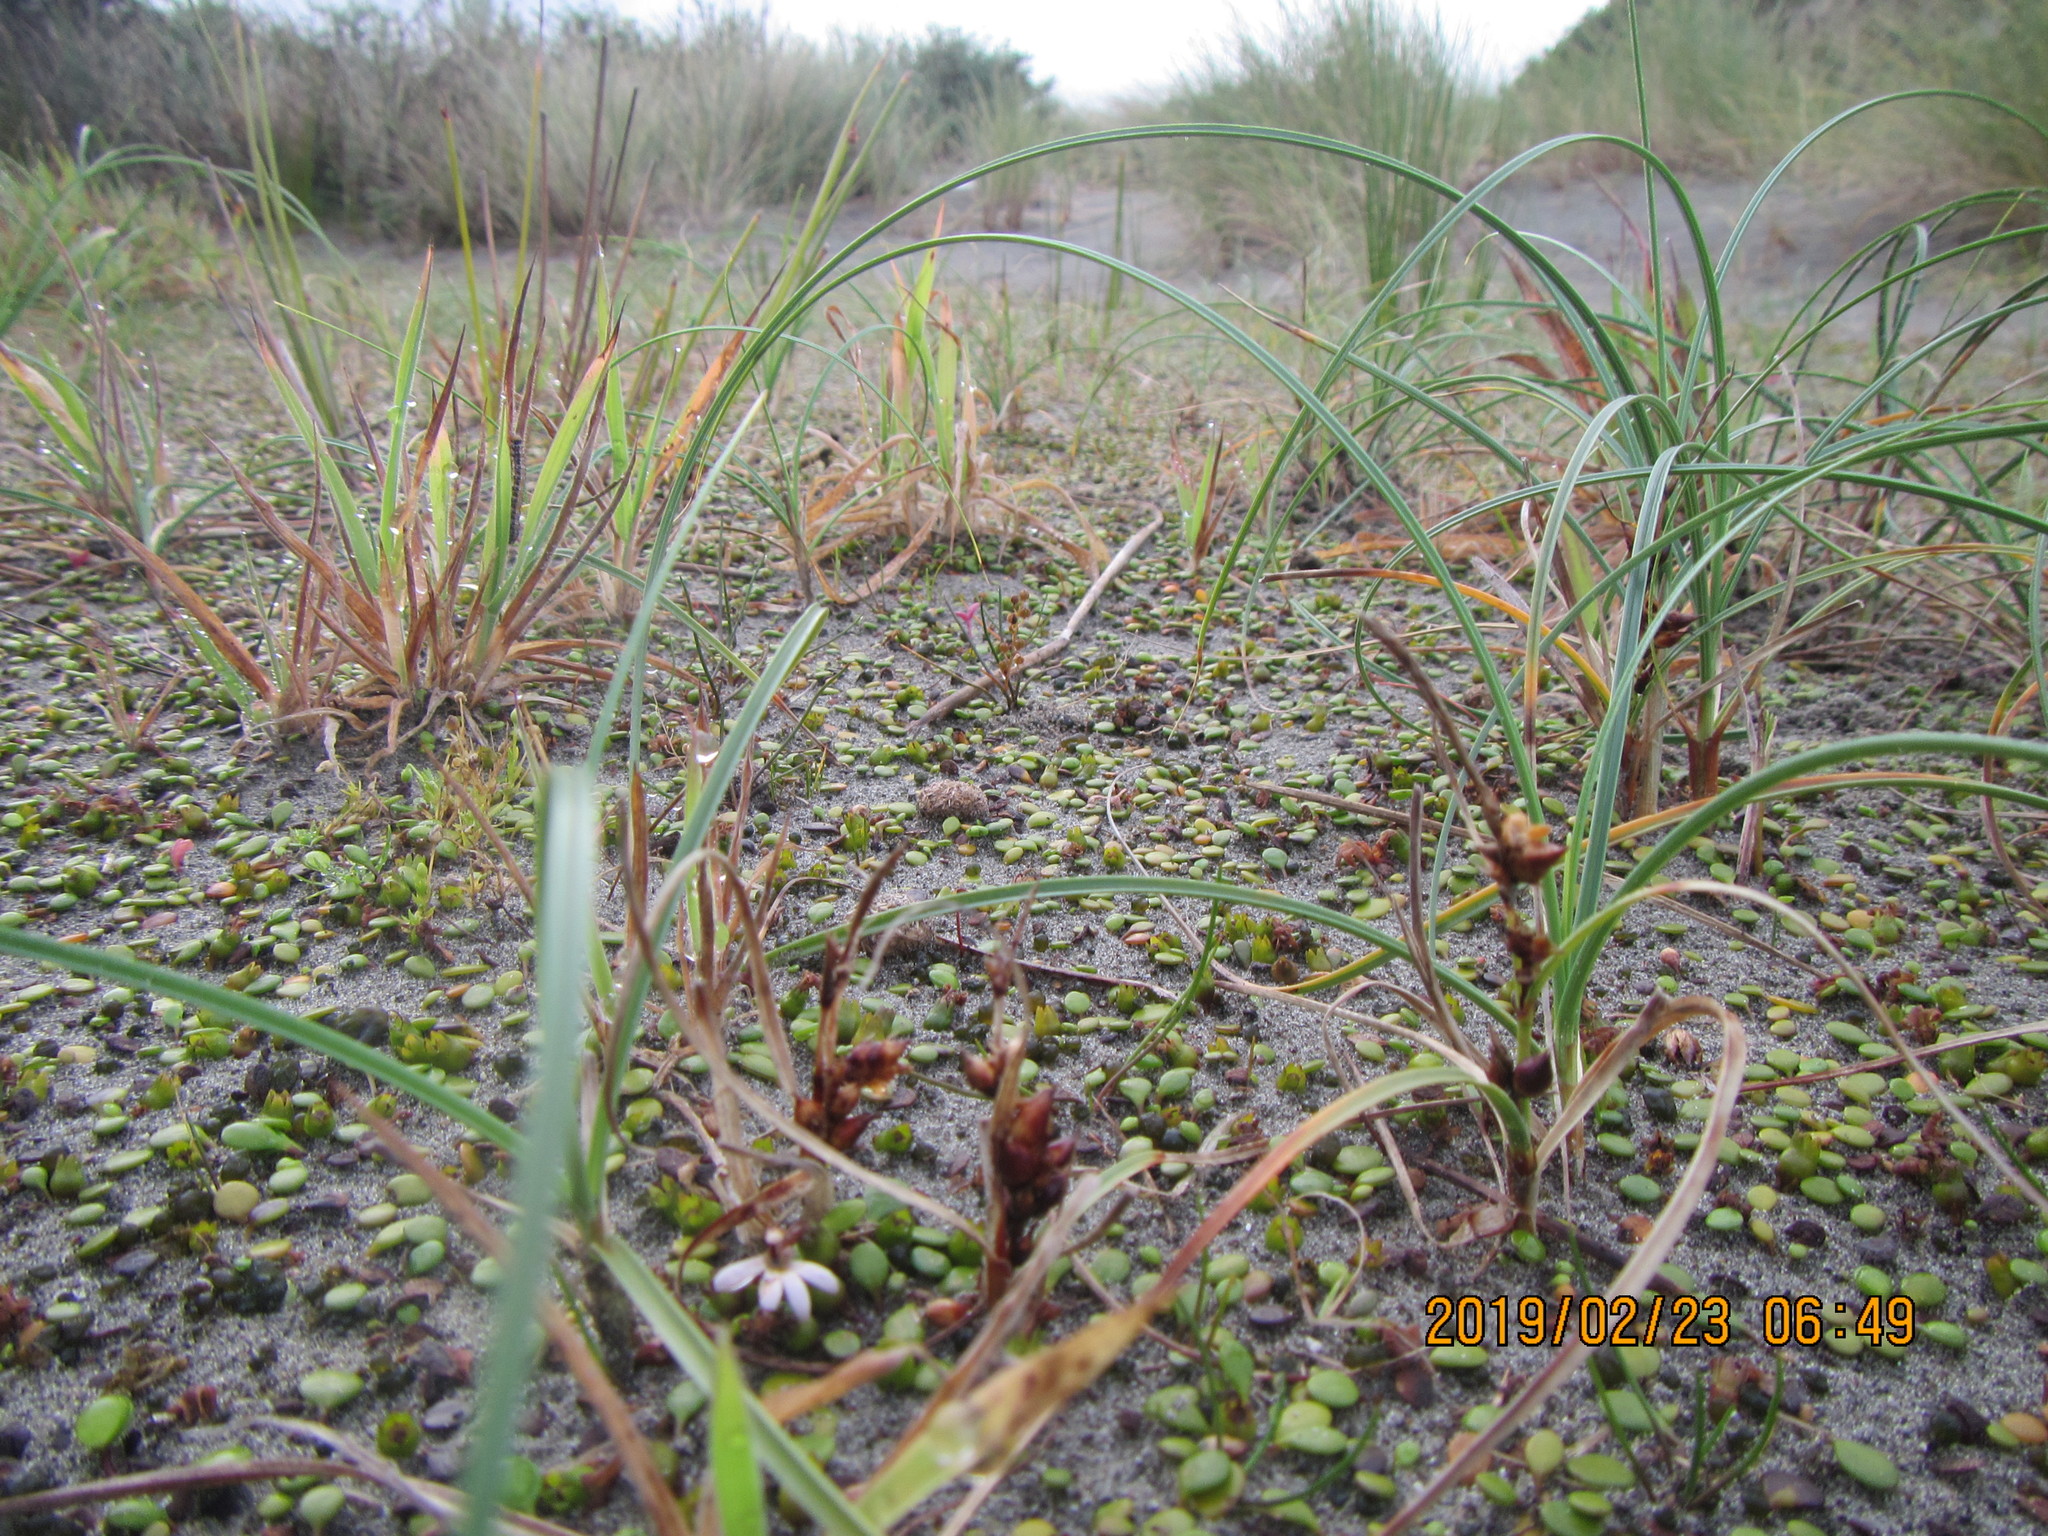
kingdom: Plantae
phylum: Tracheophyta
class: Liliopsida
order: Poales
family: Cyperaceae
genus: Carex
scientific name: Carex pumila
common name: Dwarf sedge
